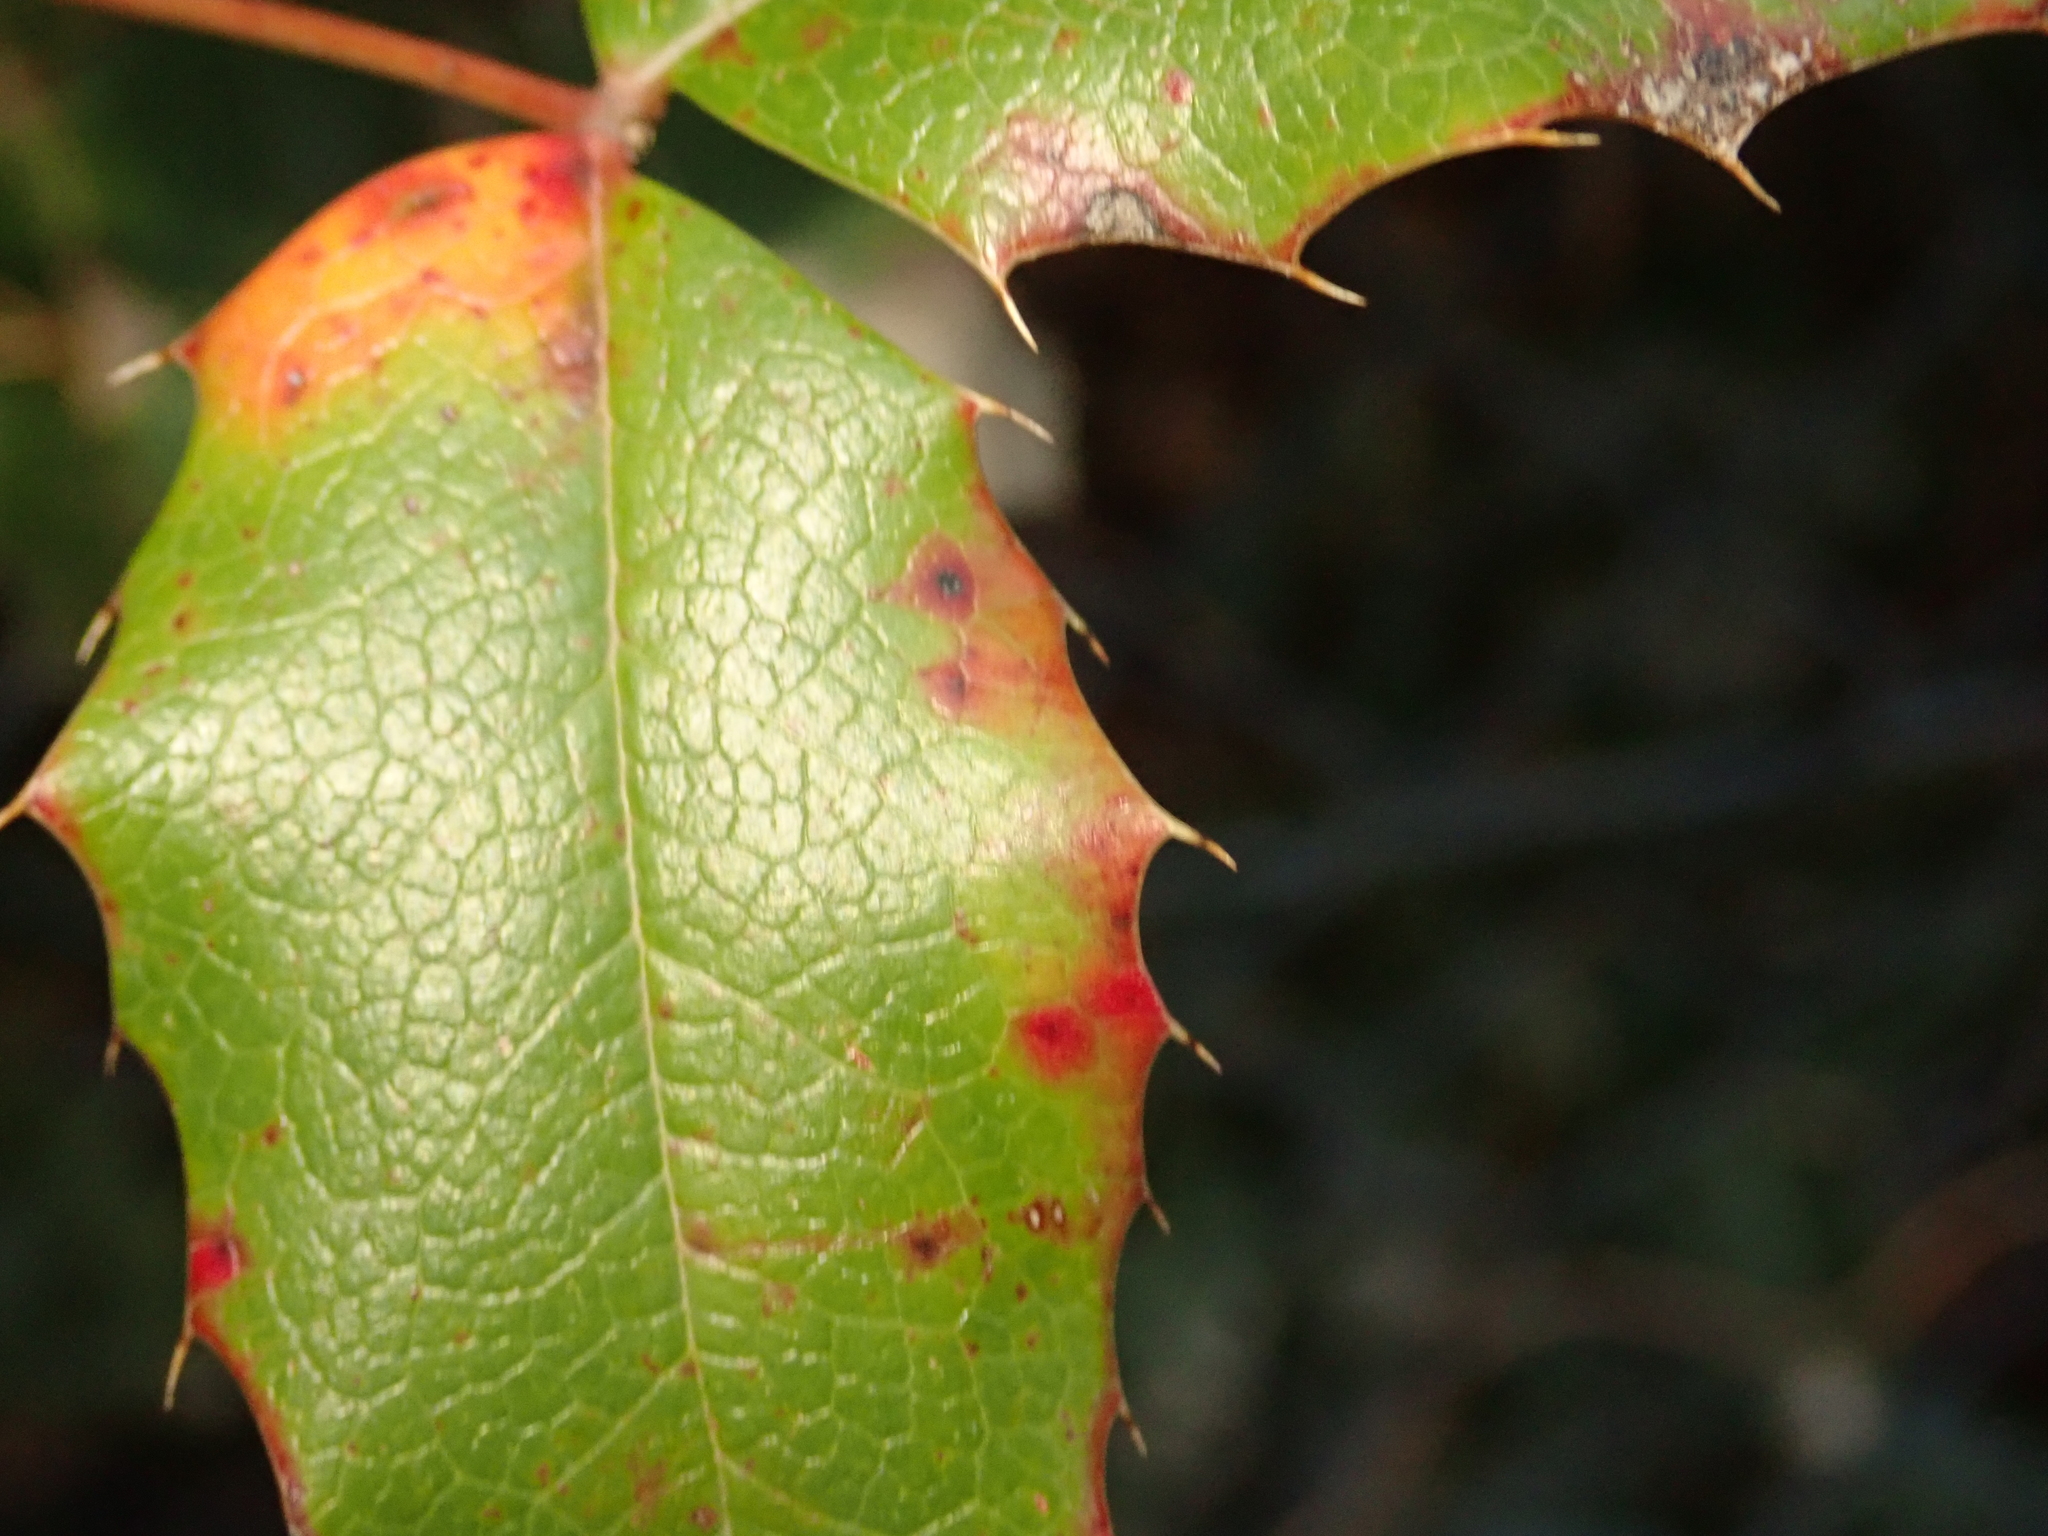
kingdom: Plantae
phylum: Tracheophyta
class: Magnoliopsida
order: Ranunculales
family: Berberidaceae
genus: Mahonia
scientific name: Mahonia aquifolium
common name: Oregon-grape
